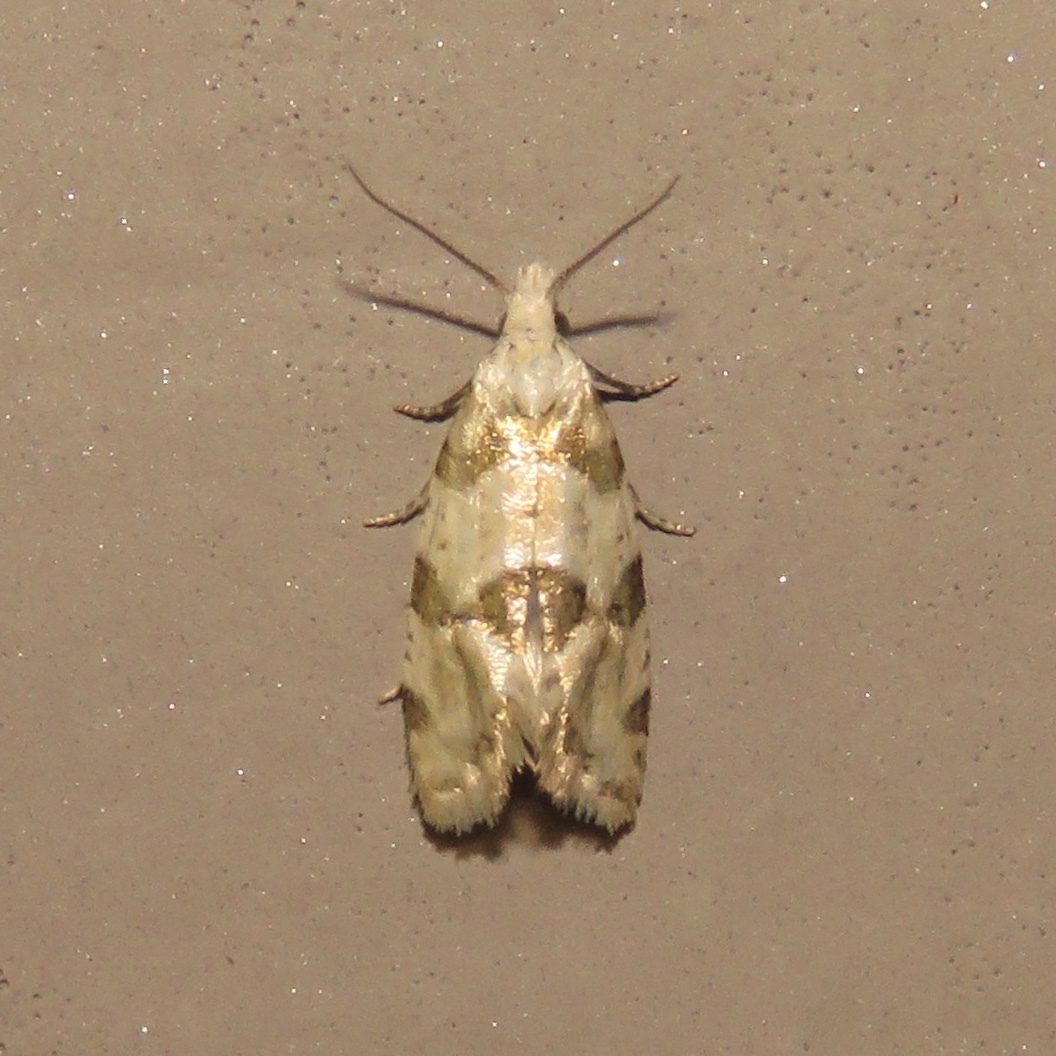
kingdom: Animalia
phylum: Arthropoda
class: Insecta
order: Lepidoptera
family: Tortricidae
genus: Aethes
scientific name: Aethes argentilimitana
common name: Silver-bordered aethes
